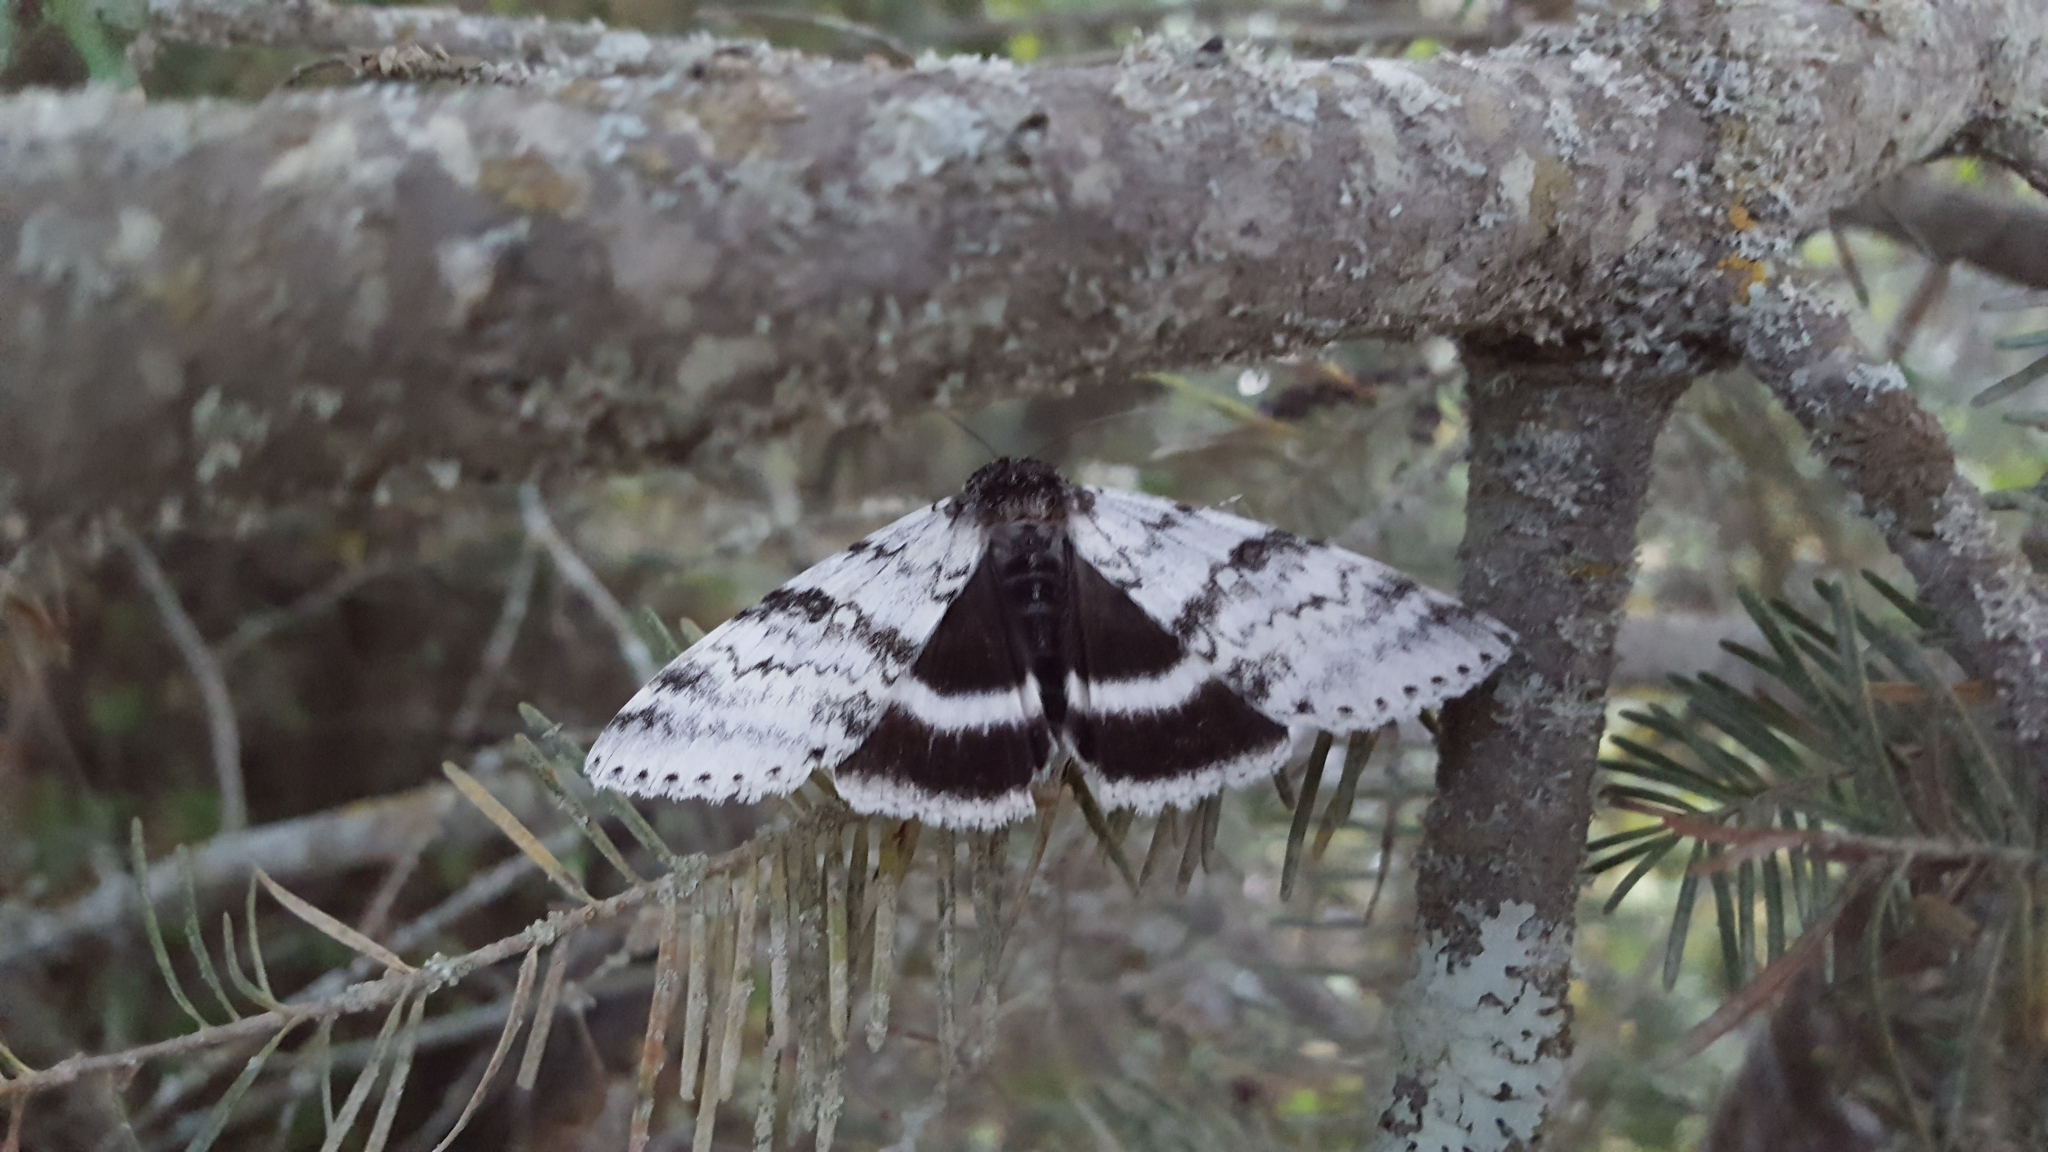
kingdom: Animalia
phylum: Arthropoda
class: Insecta
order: Lepidoptera
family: Erebidae
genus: Catocala
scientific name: Catocala relicta
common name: White underwing
